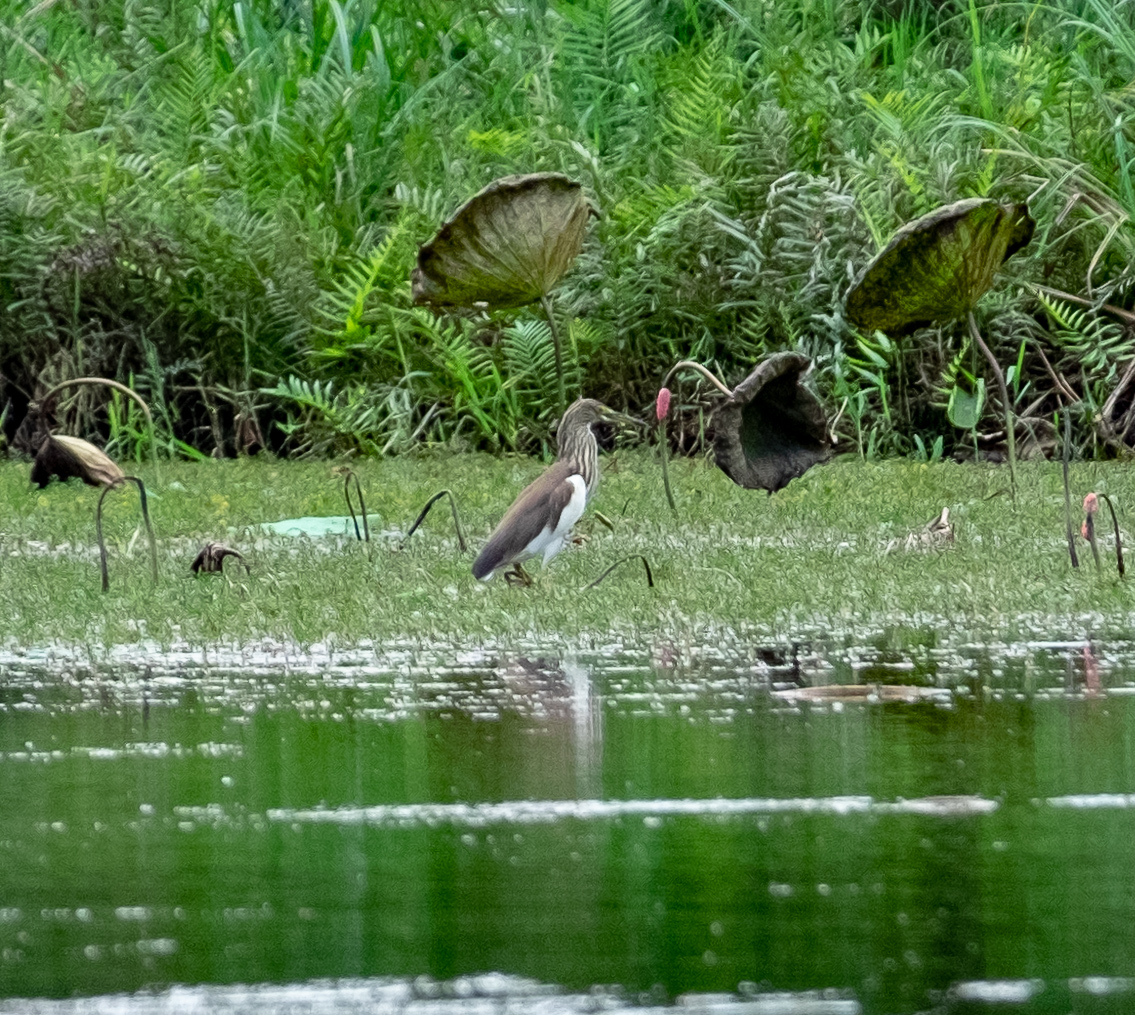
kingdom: Animalia
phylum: Chordata
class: Aves
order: Pelecaniformes
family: Ardeidae
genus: Ardeola
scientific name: Ardeola bacchus
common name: Chinese pond heron
